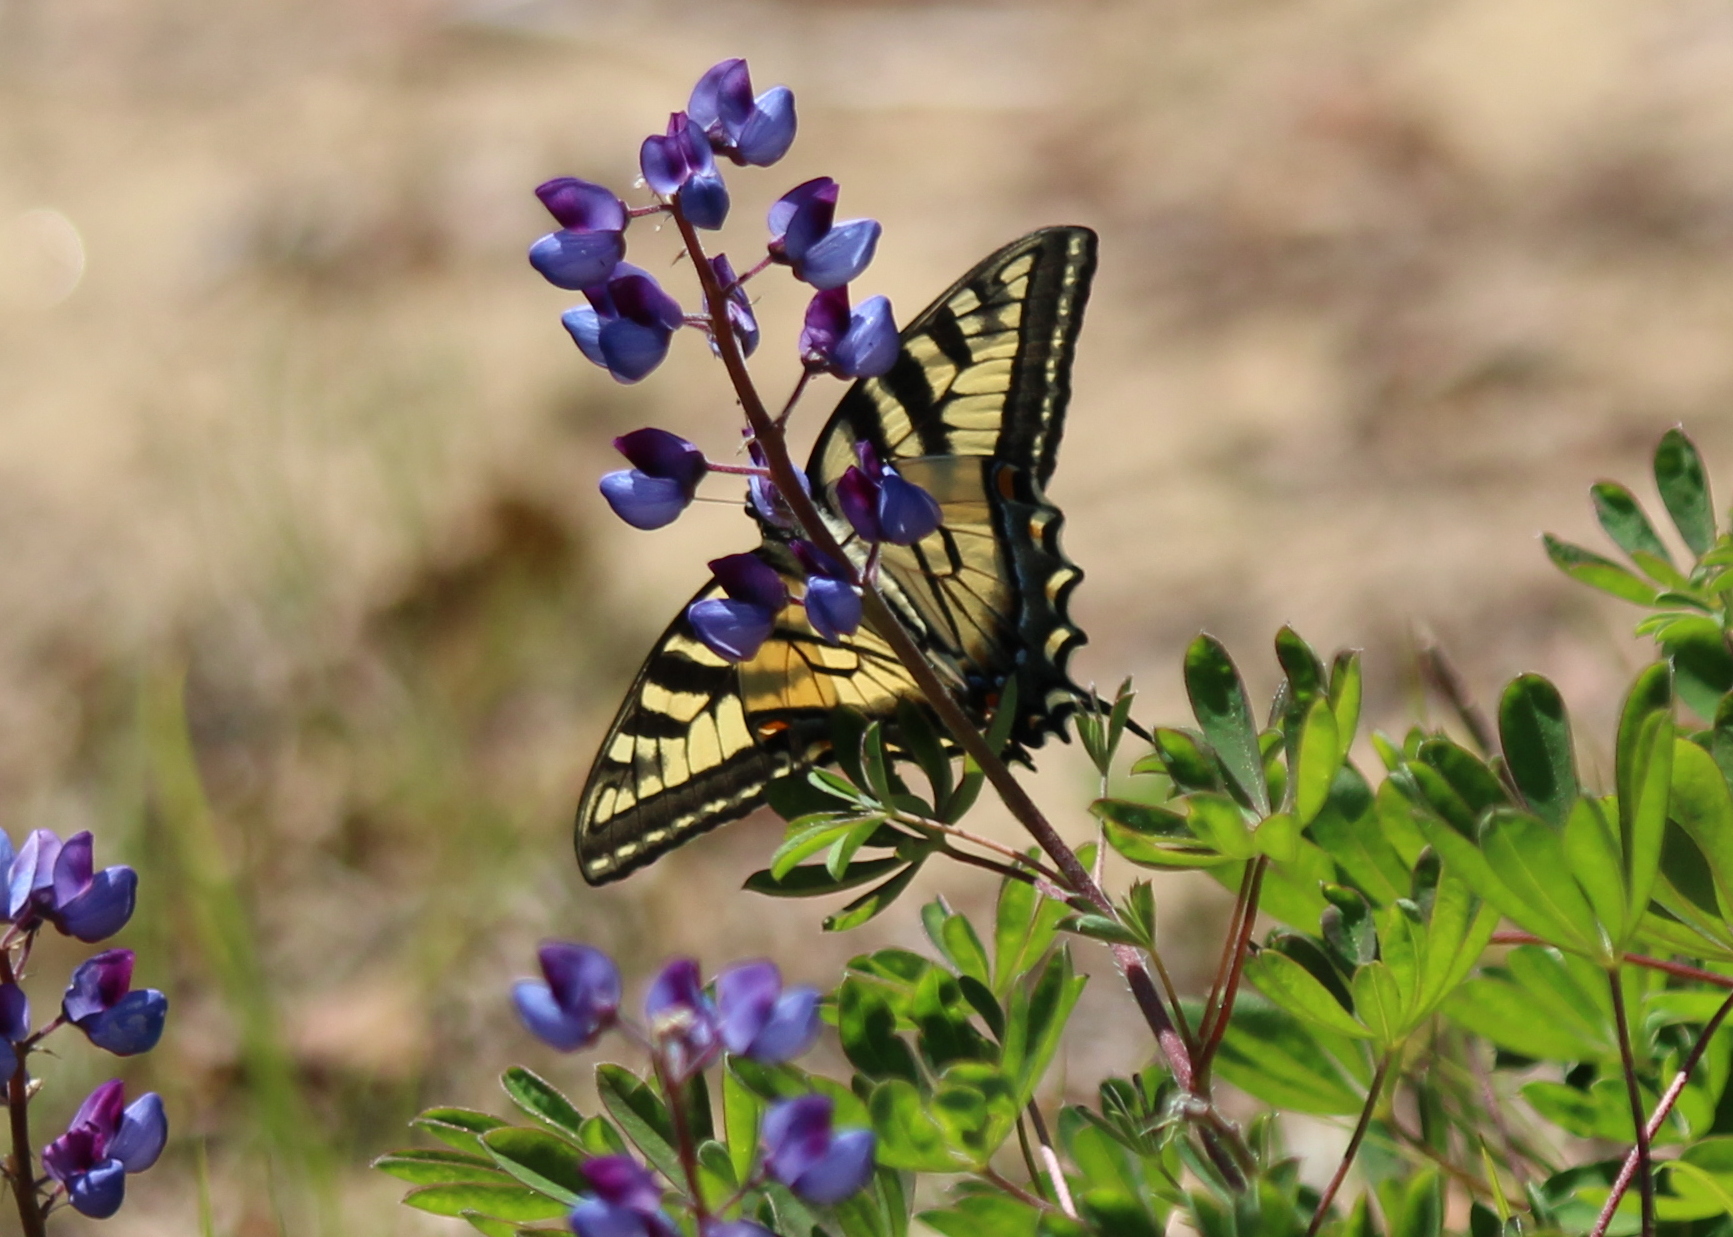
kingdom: Animalia
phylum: Arthropoda
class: Insecta
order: Lepidoptera
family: Papilionidae
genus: Papilio
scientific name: Papilio glaucus
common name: Tiger swallowtail
